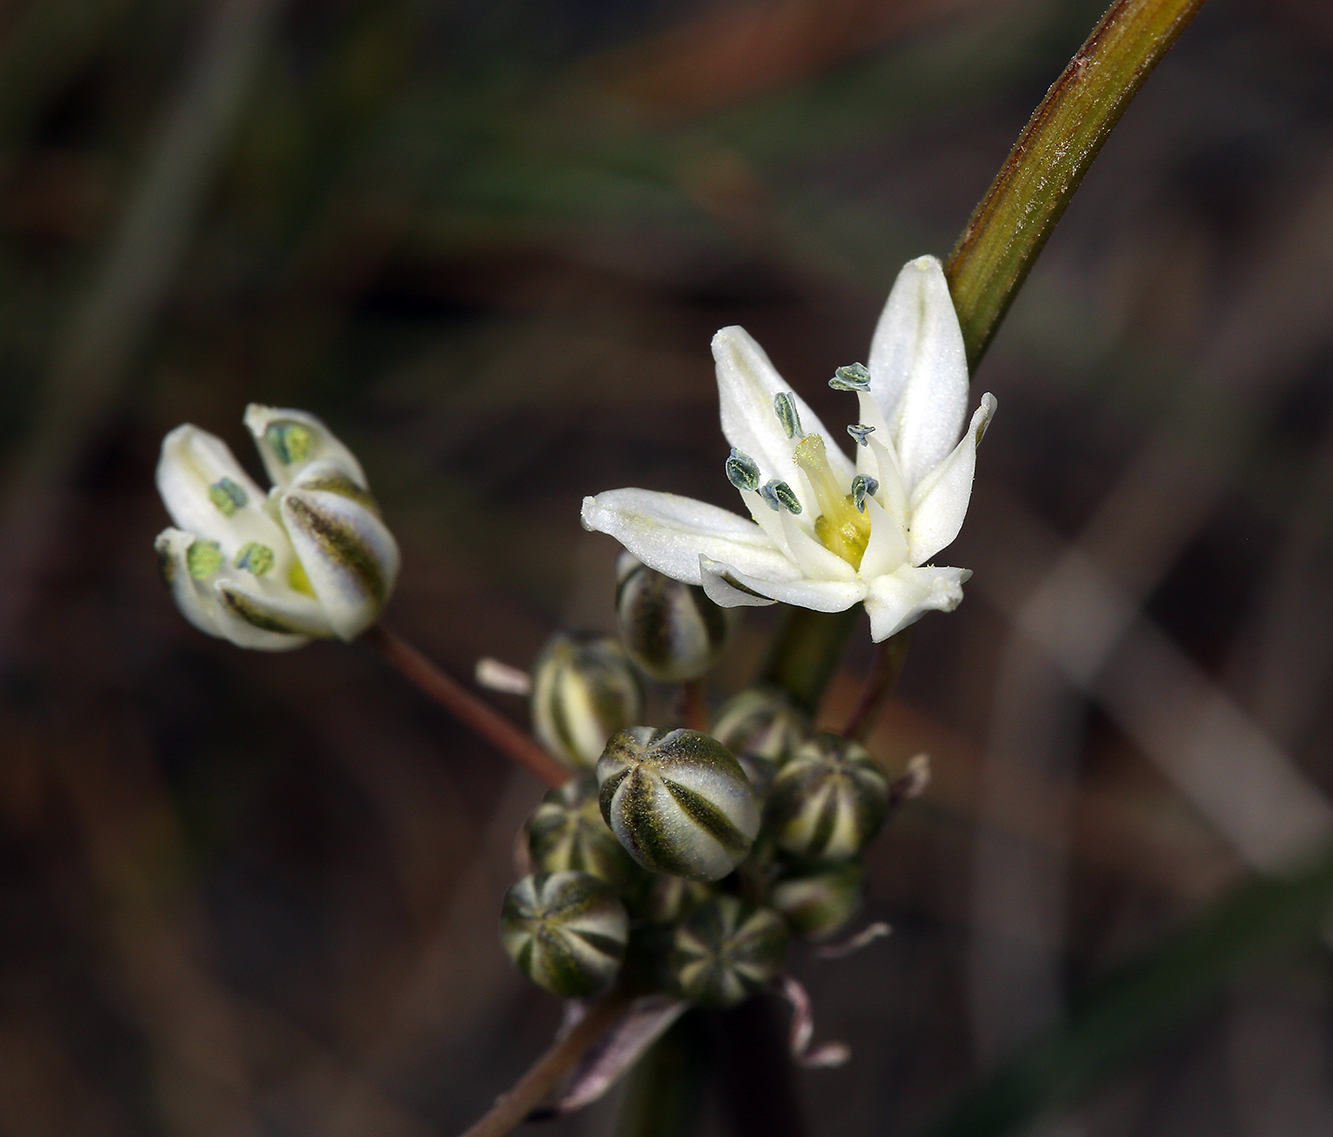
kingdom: Plantae
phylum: Tracheophyta
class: Liliopsida
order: Asparagales
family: Asparagaceae
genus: Muilla
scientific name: Muilla transmontana
